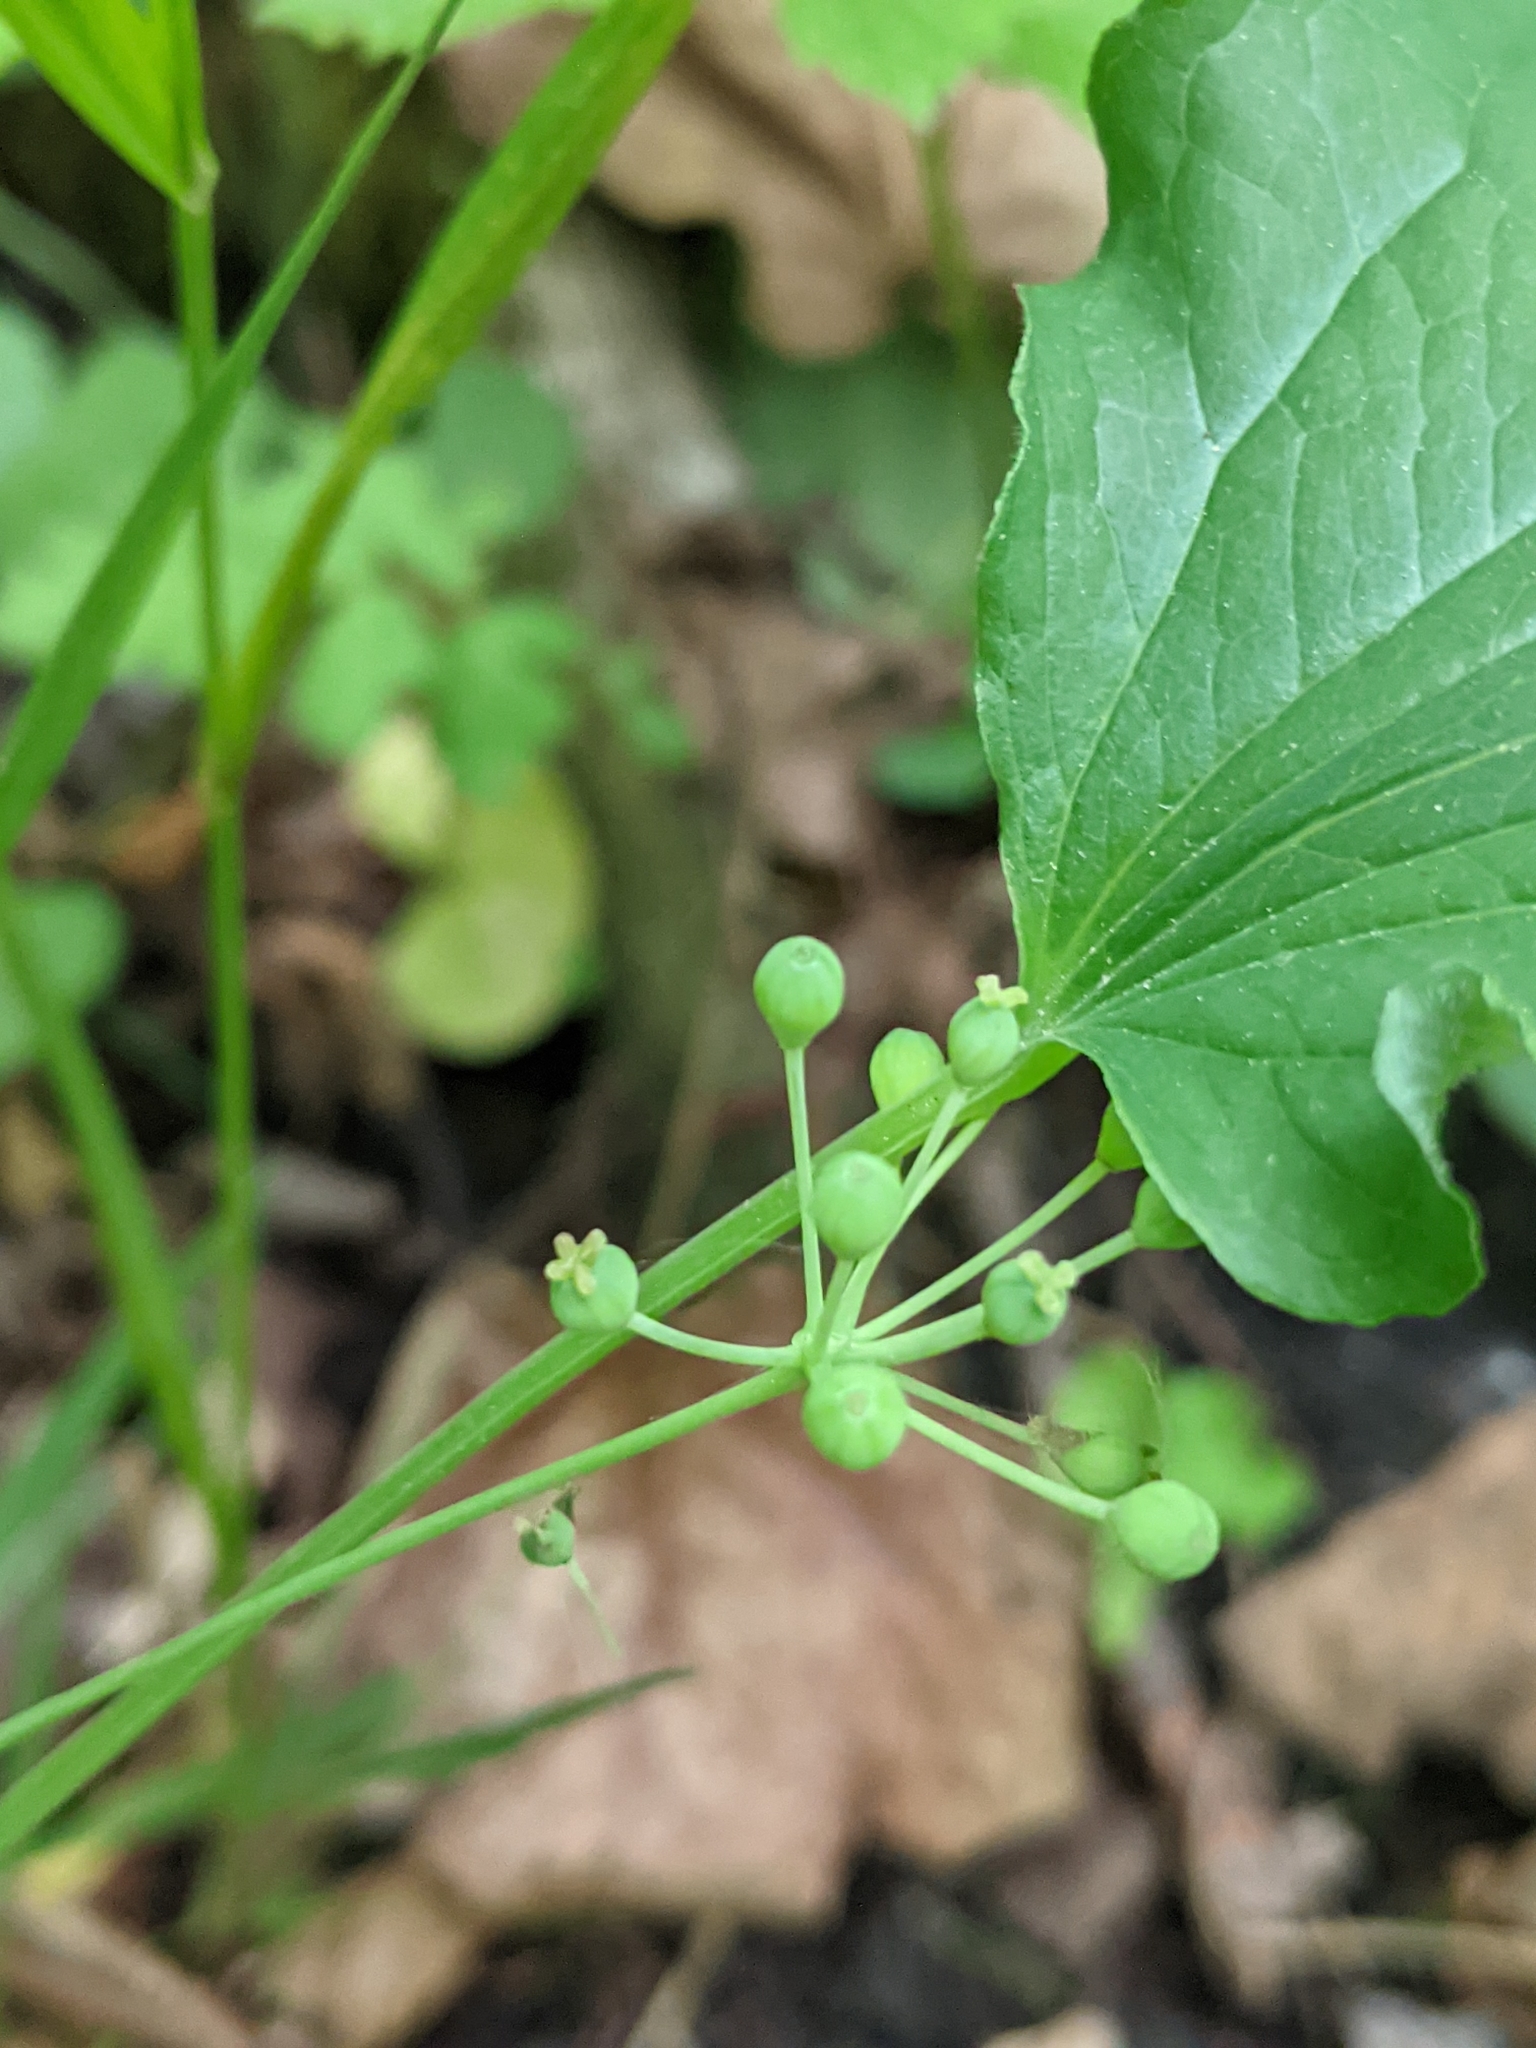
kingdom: Plantae
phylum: Tracheophyta
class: Liliopsida
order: Liliales
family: Smilacaceae
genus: Smilax
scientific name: Smilax ecirrhata
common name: Upright carrionflower
